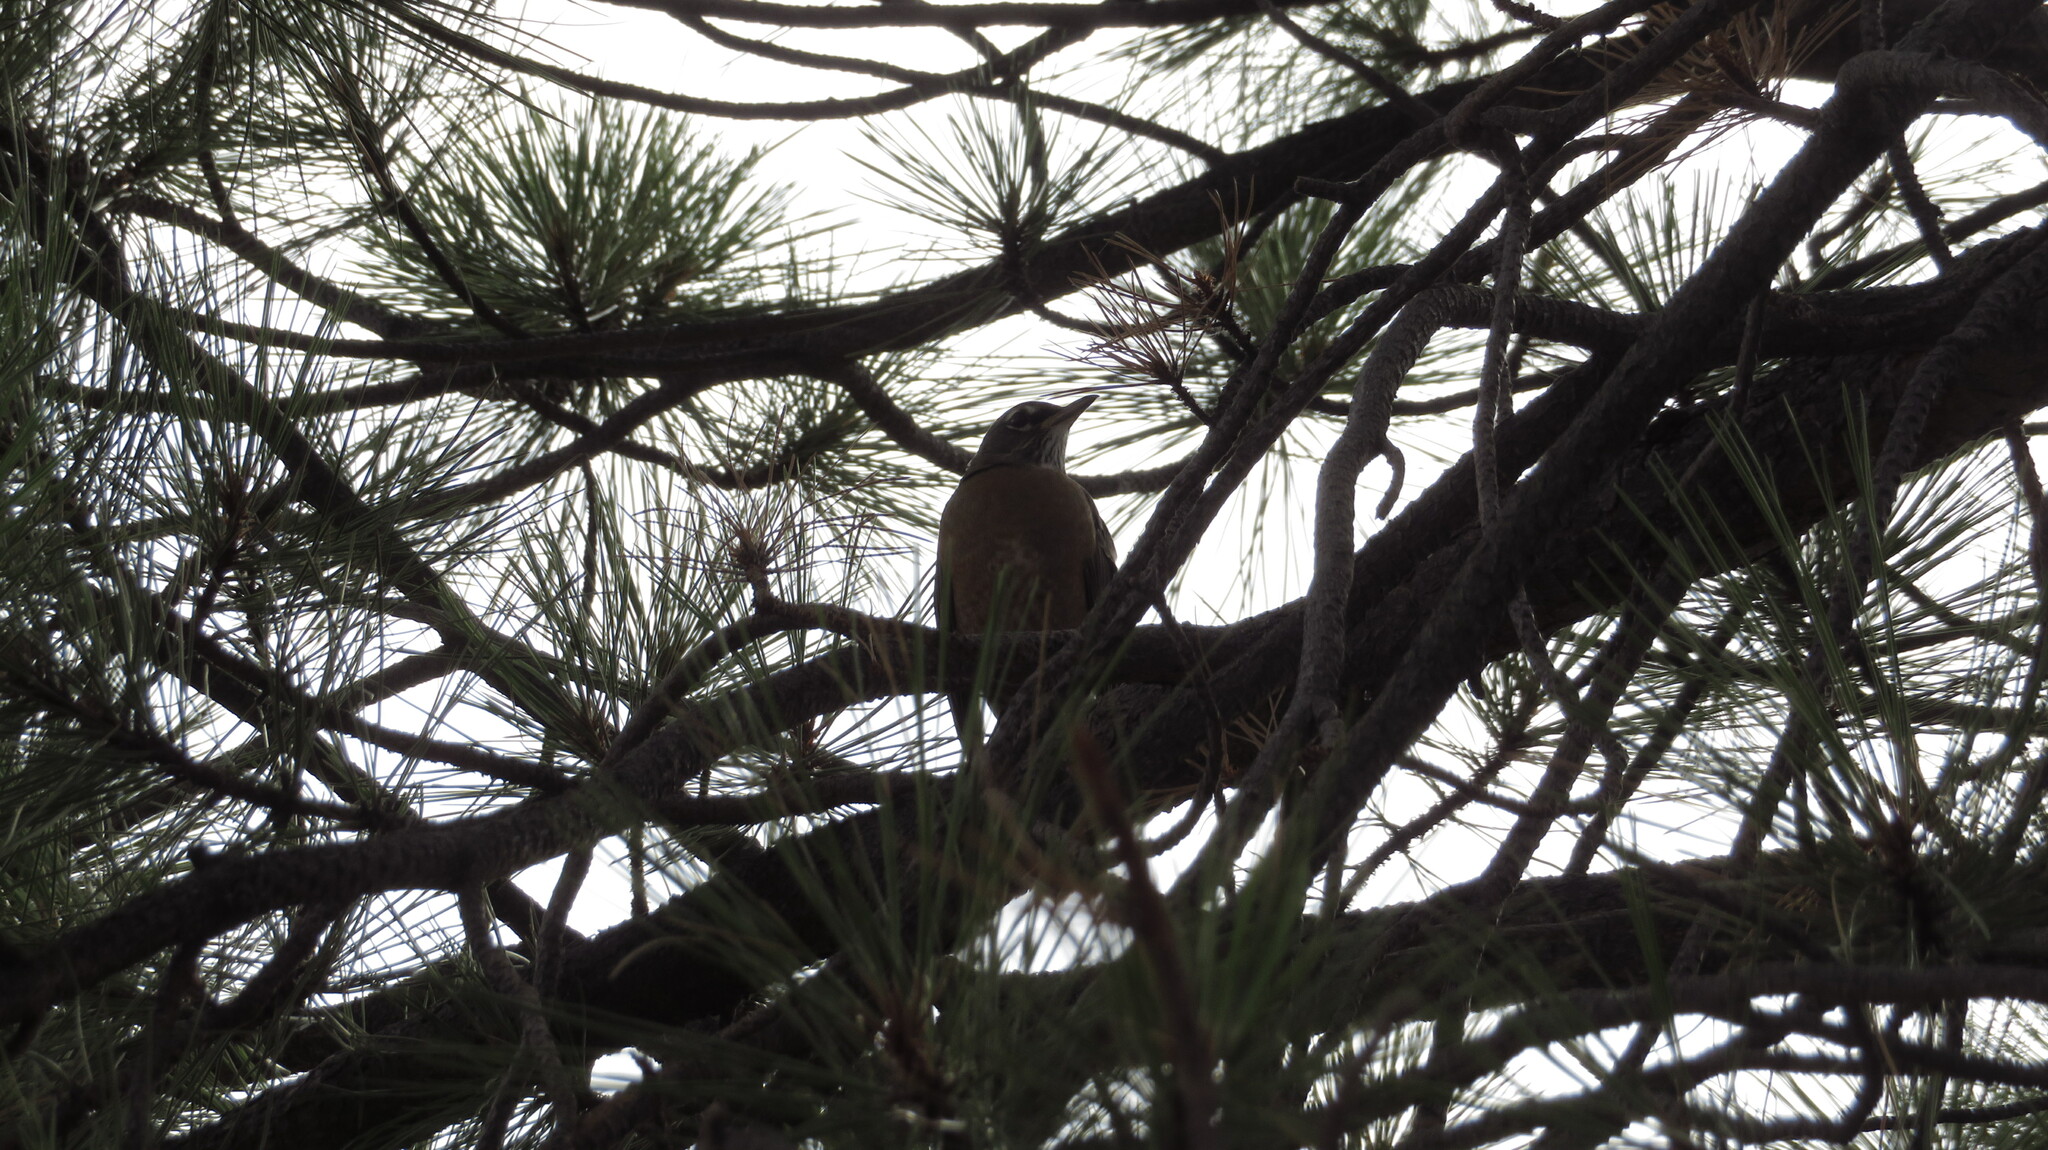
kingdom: Animalia
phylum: Chordata
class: Aves
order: Passeriformes
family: Turdidae
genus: Turdus
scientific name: Turdus migratorius
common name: American robin
